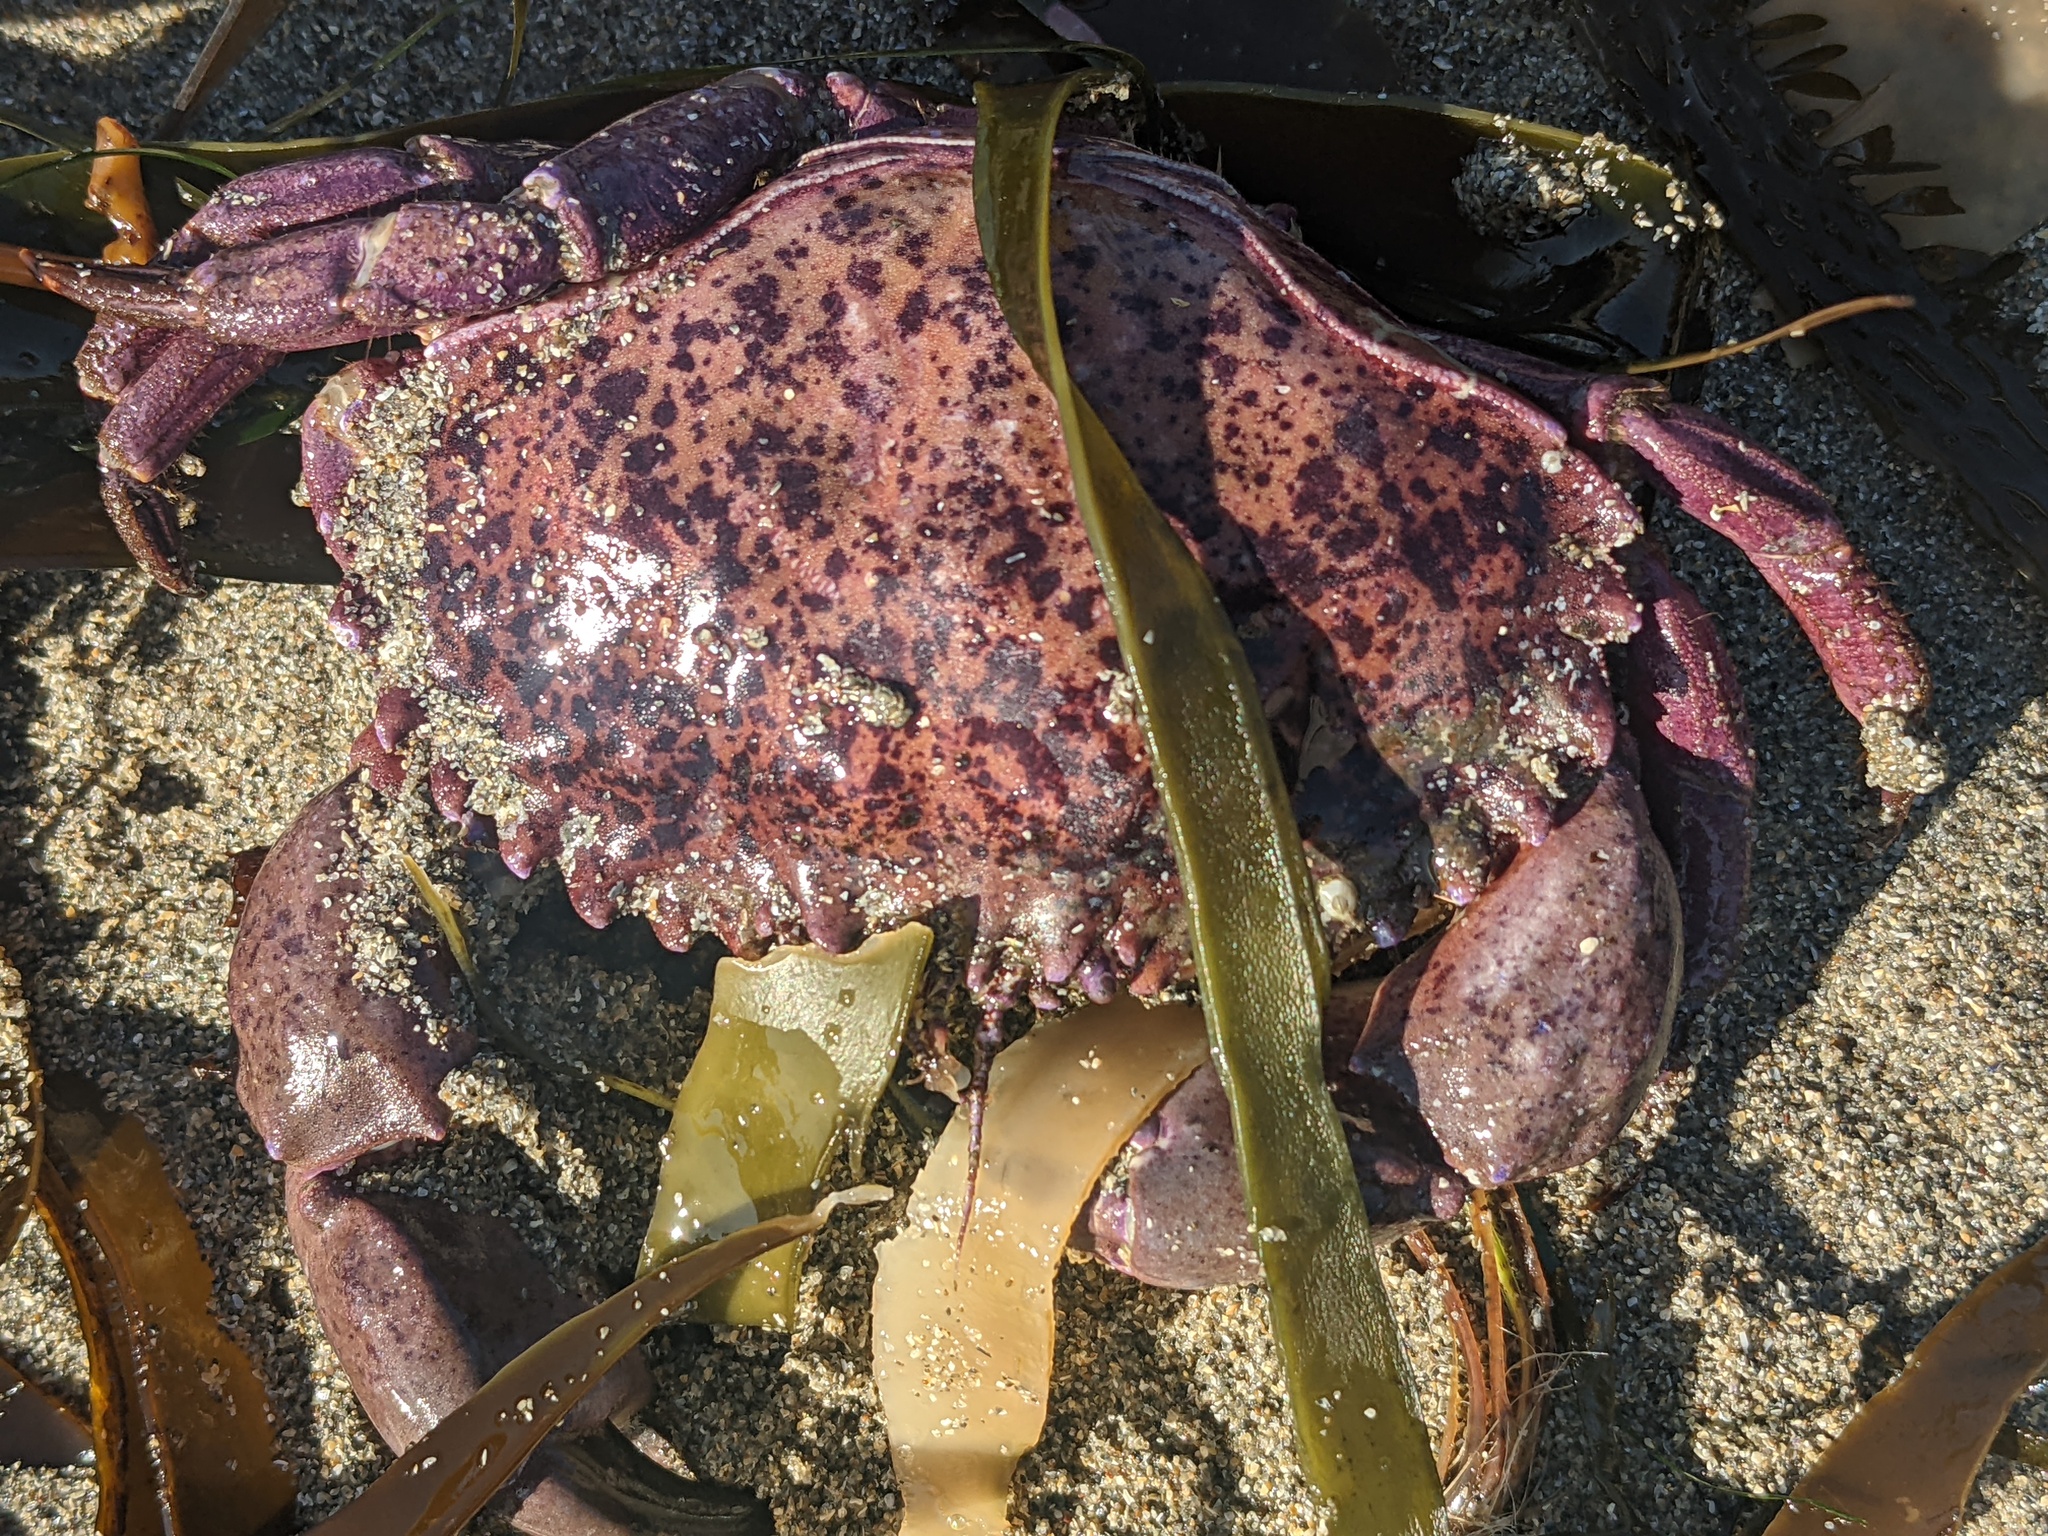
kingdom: Animalia
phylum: Arthropoda
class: Malacostraca
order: Decapoda
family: Cancridae
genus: Romaleon
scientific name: Romaleon antennarium
